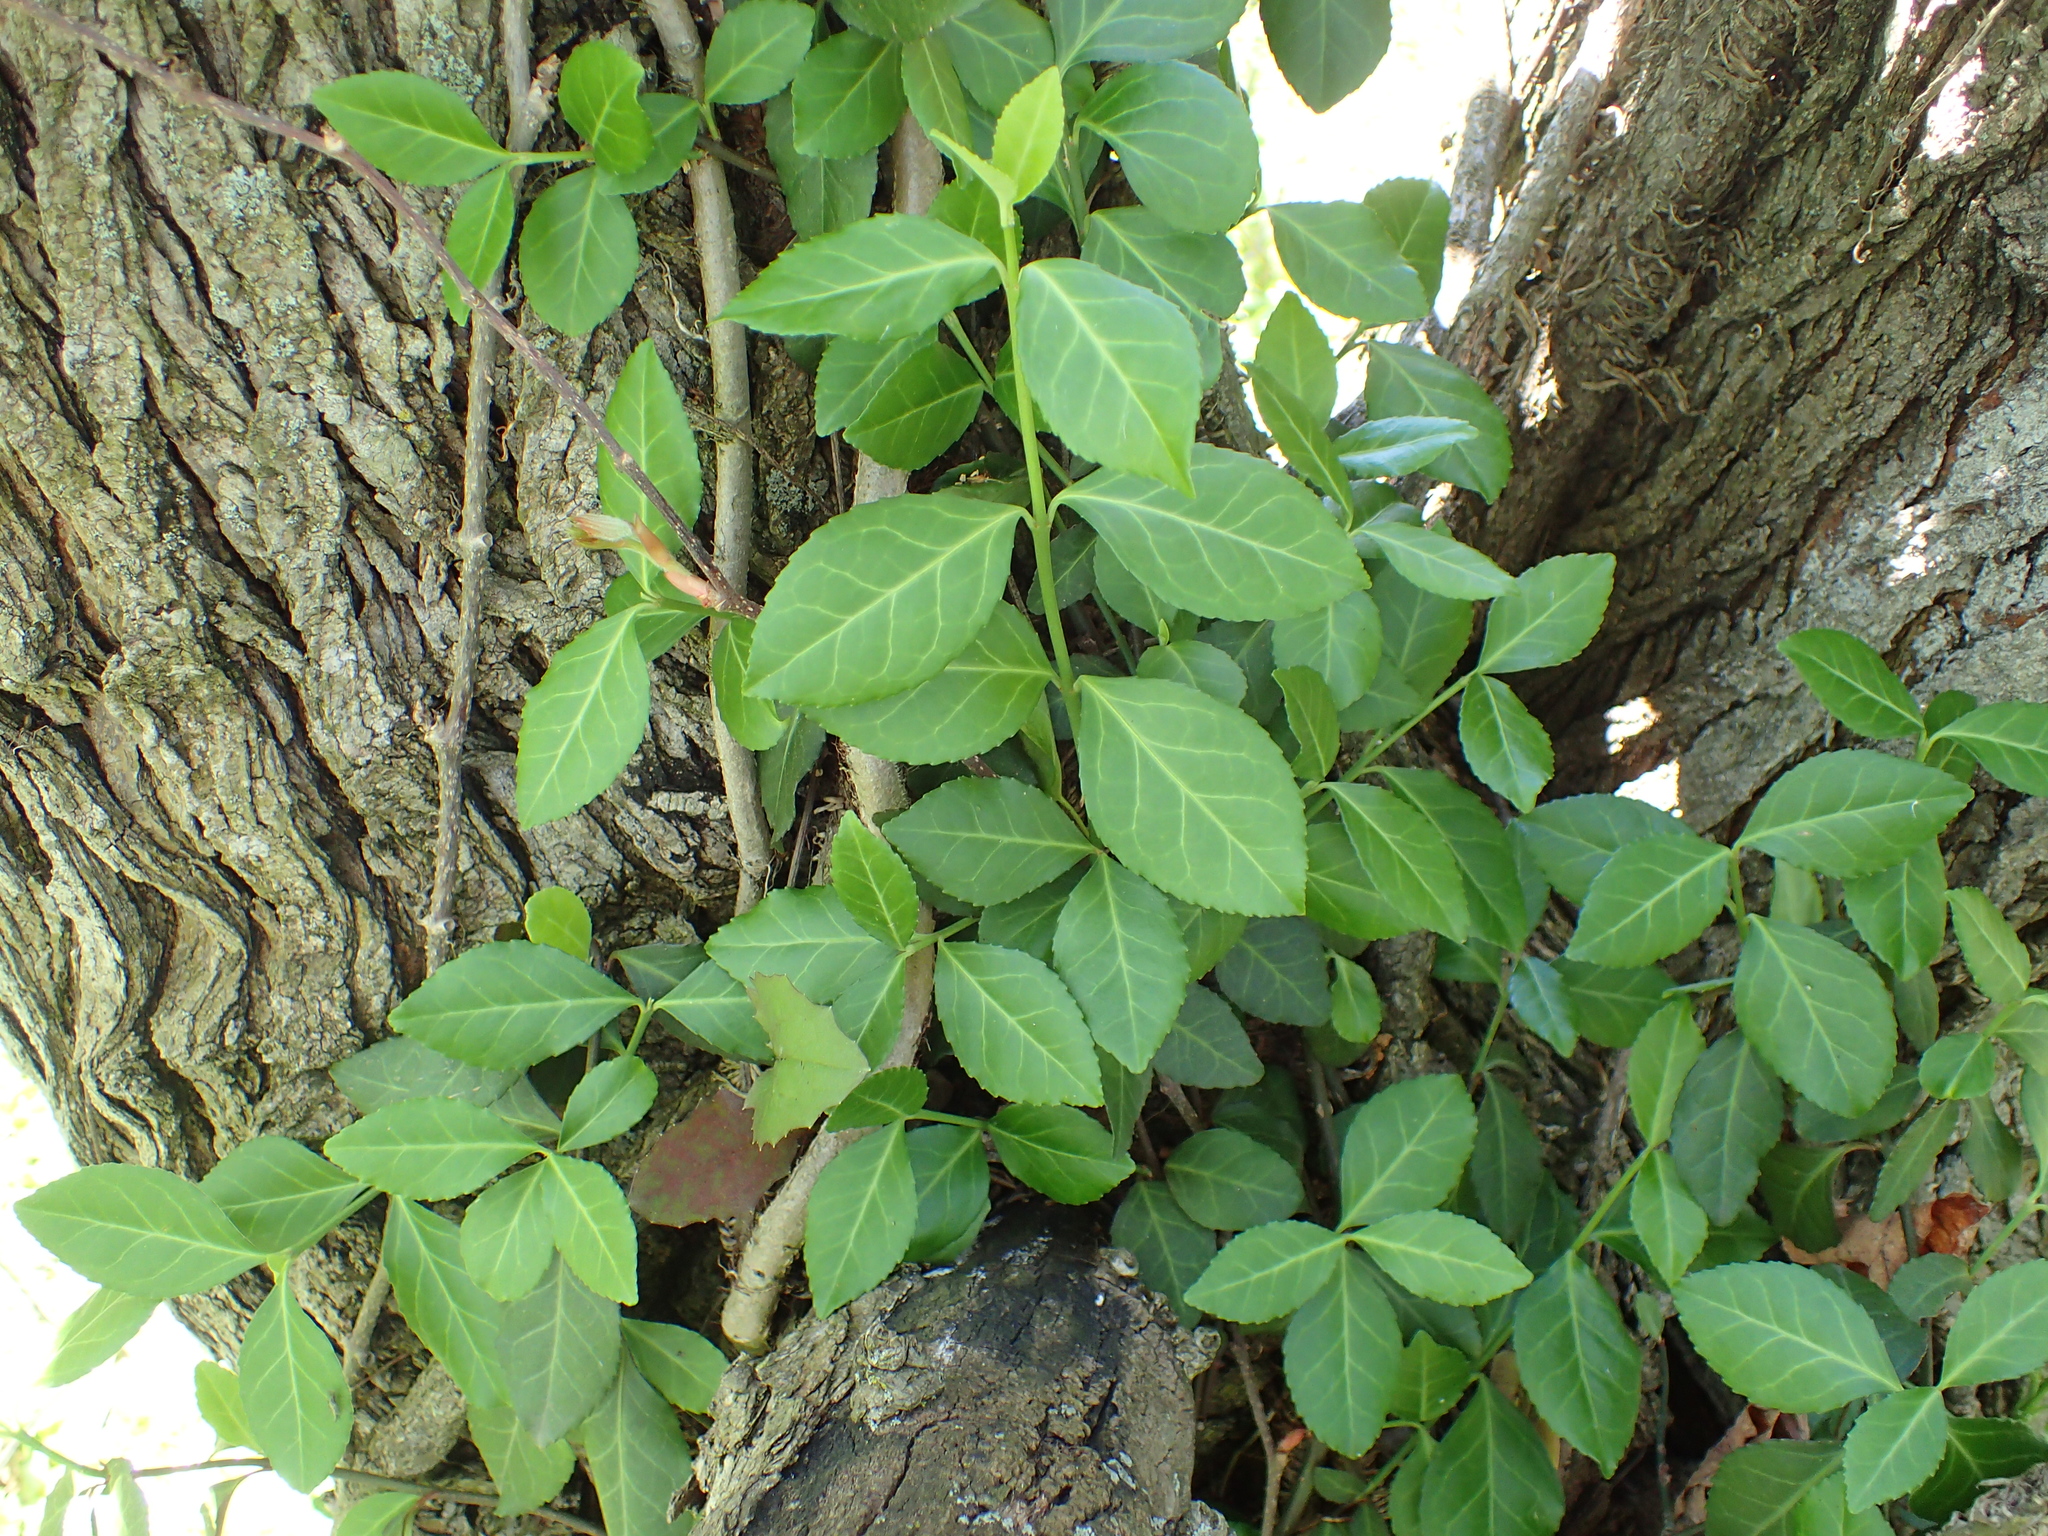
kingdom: Plantae
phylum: Tracheophyta
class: Magnoliopsida
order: Celastrales
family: Celastraceae
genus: Euonymus
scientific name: Euonymus fortunei
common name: Climbing euonymus
